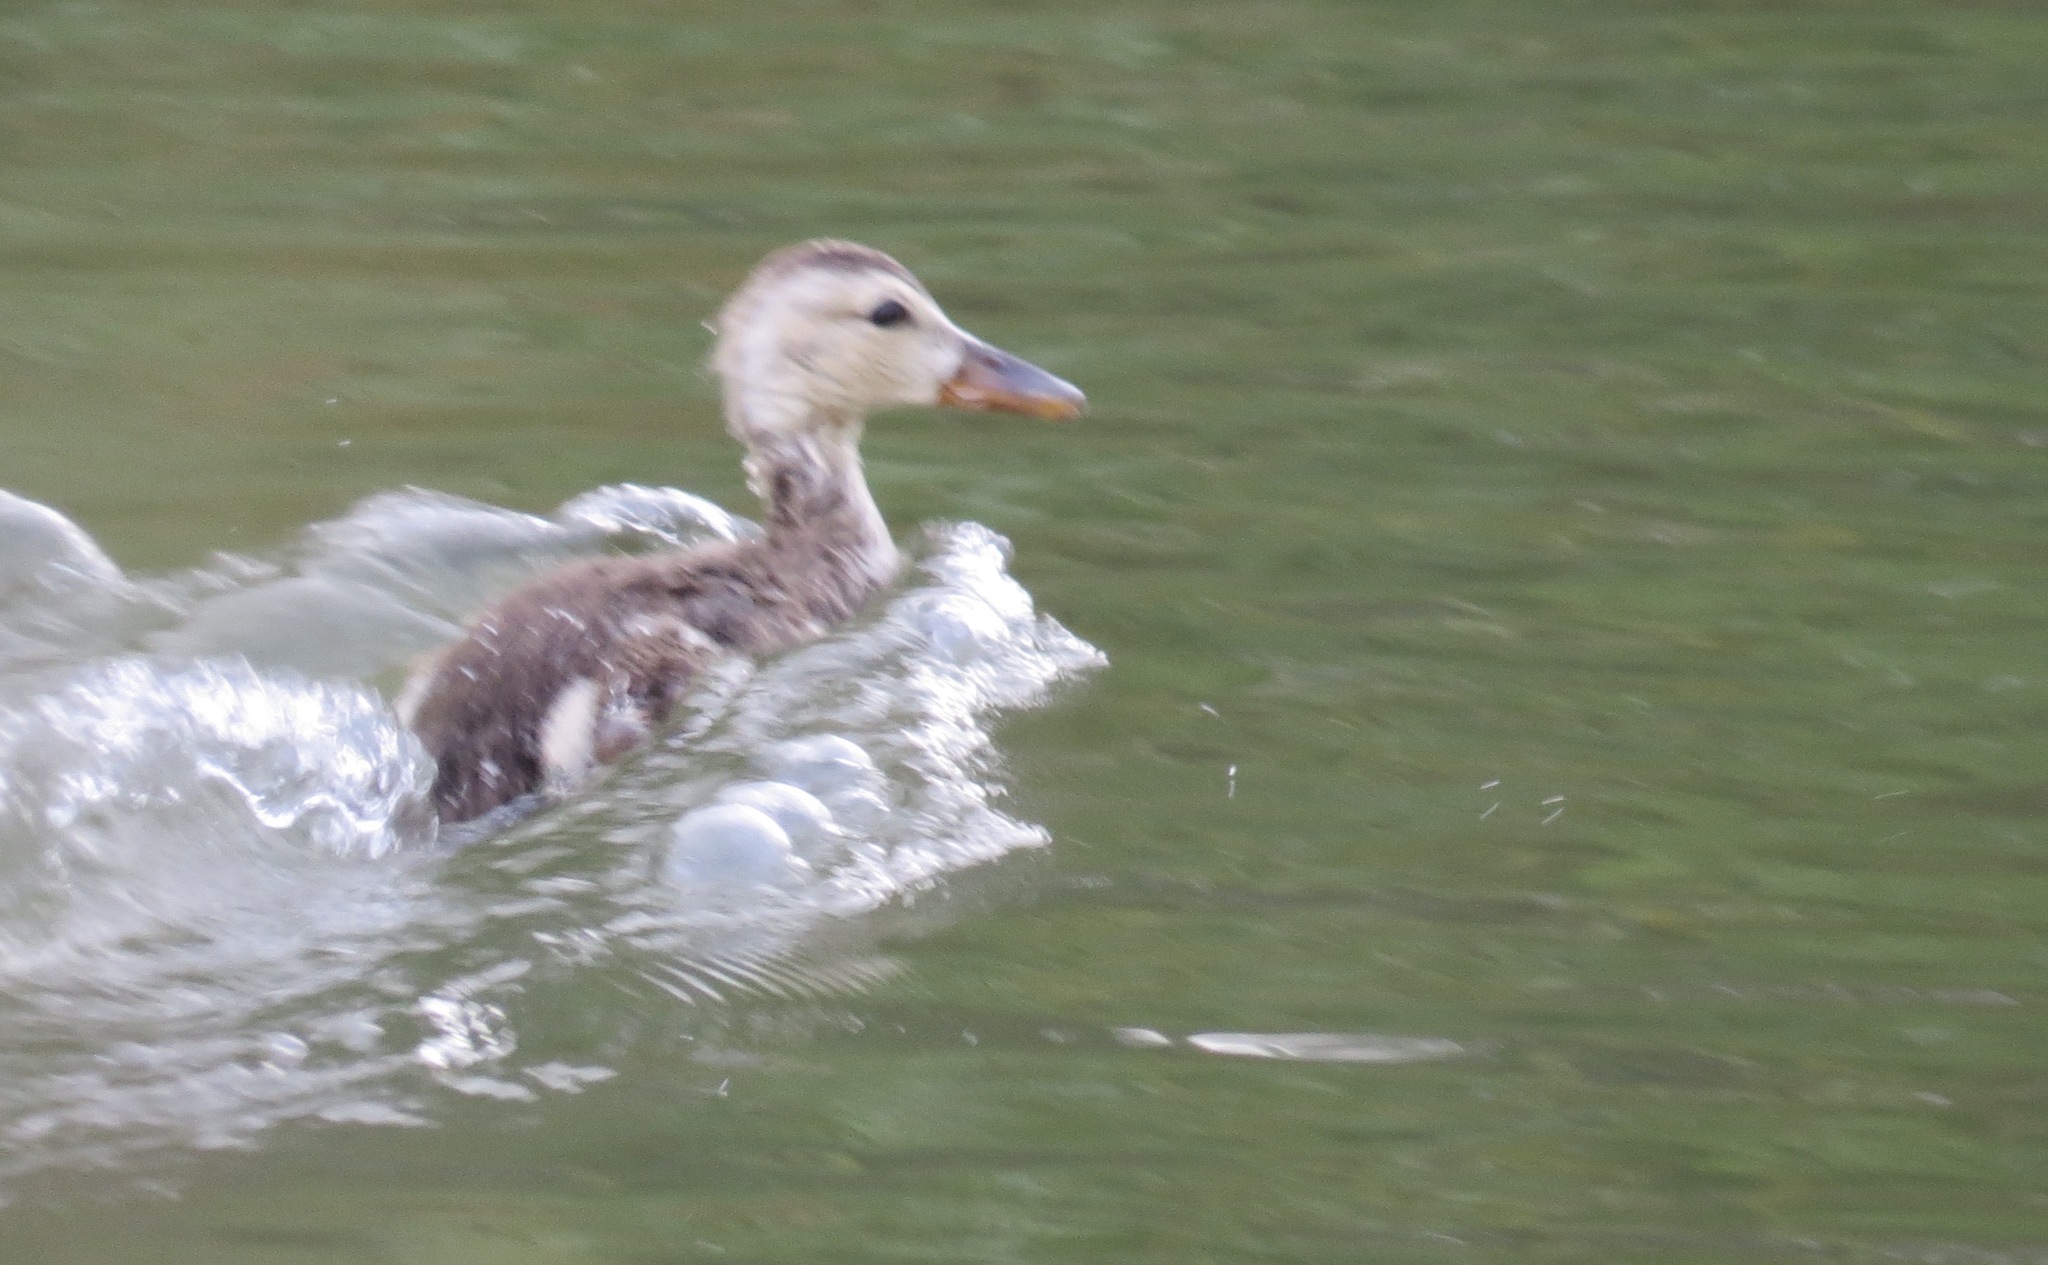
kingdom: Animalia
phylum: Chordata
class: Aves
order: Anseriformes
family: Anatidae
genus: Anas
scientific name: Anas platyrhynchos
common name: Mallard
